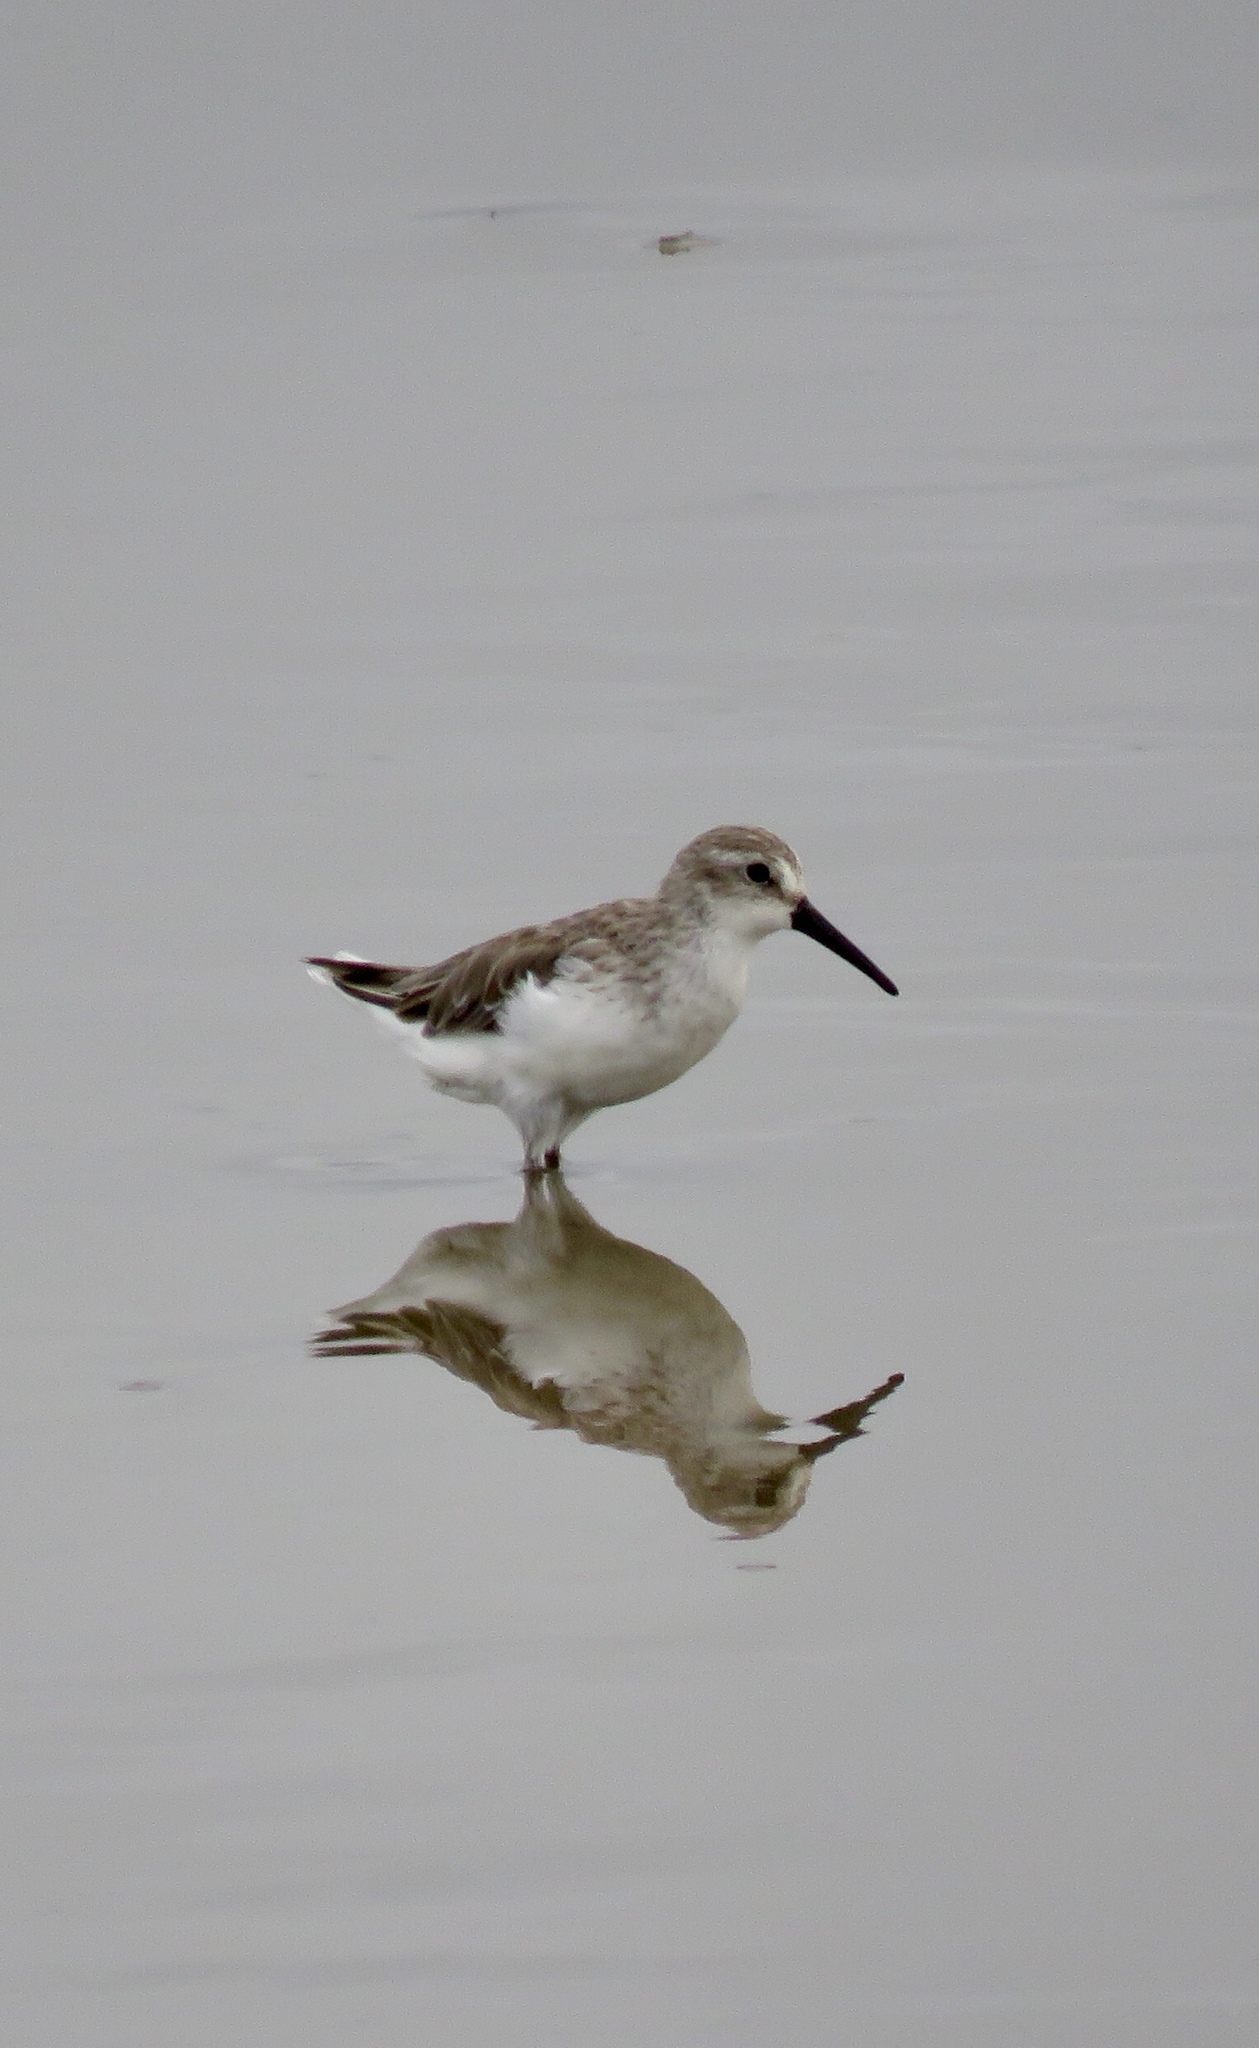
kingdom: Animalia
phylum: Chordata
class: Aves
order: Charadriiformes
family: Scolopacidae
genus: Calidris
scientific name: Calidris mauri
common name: Western sandpiper
